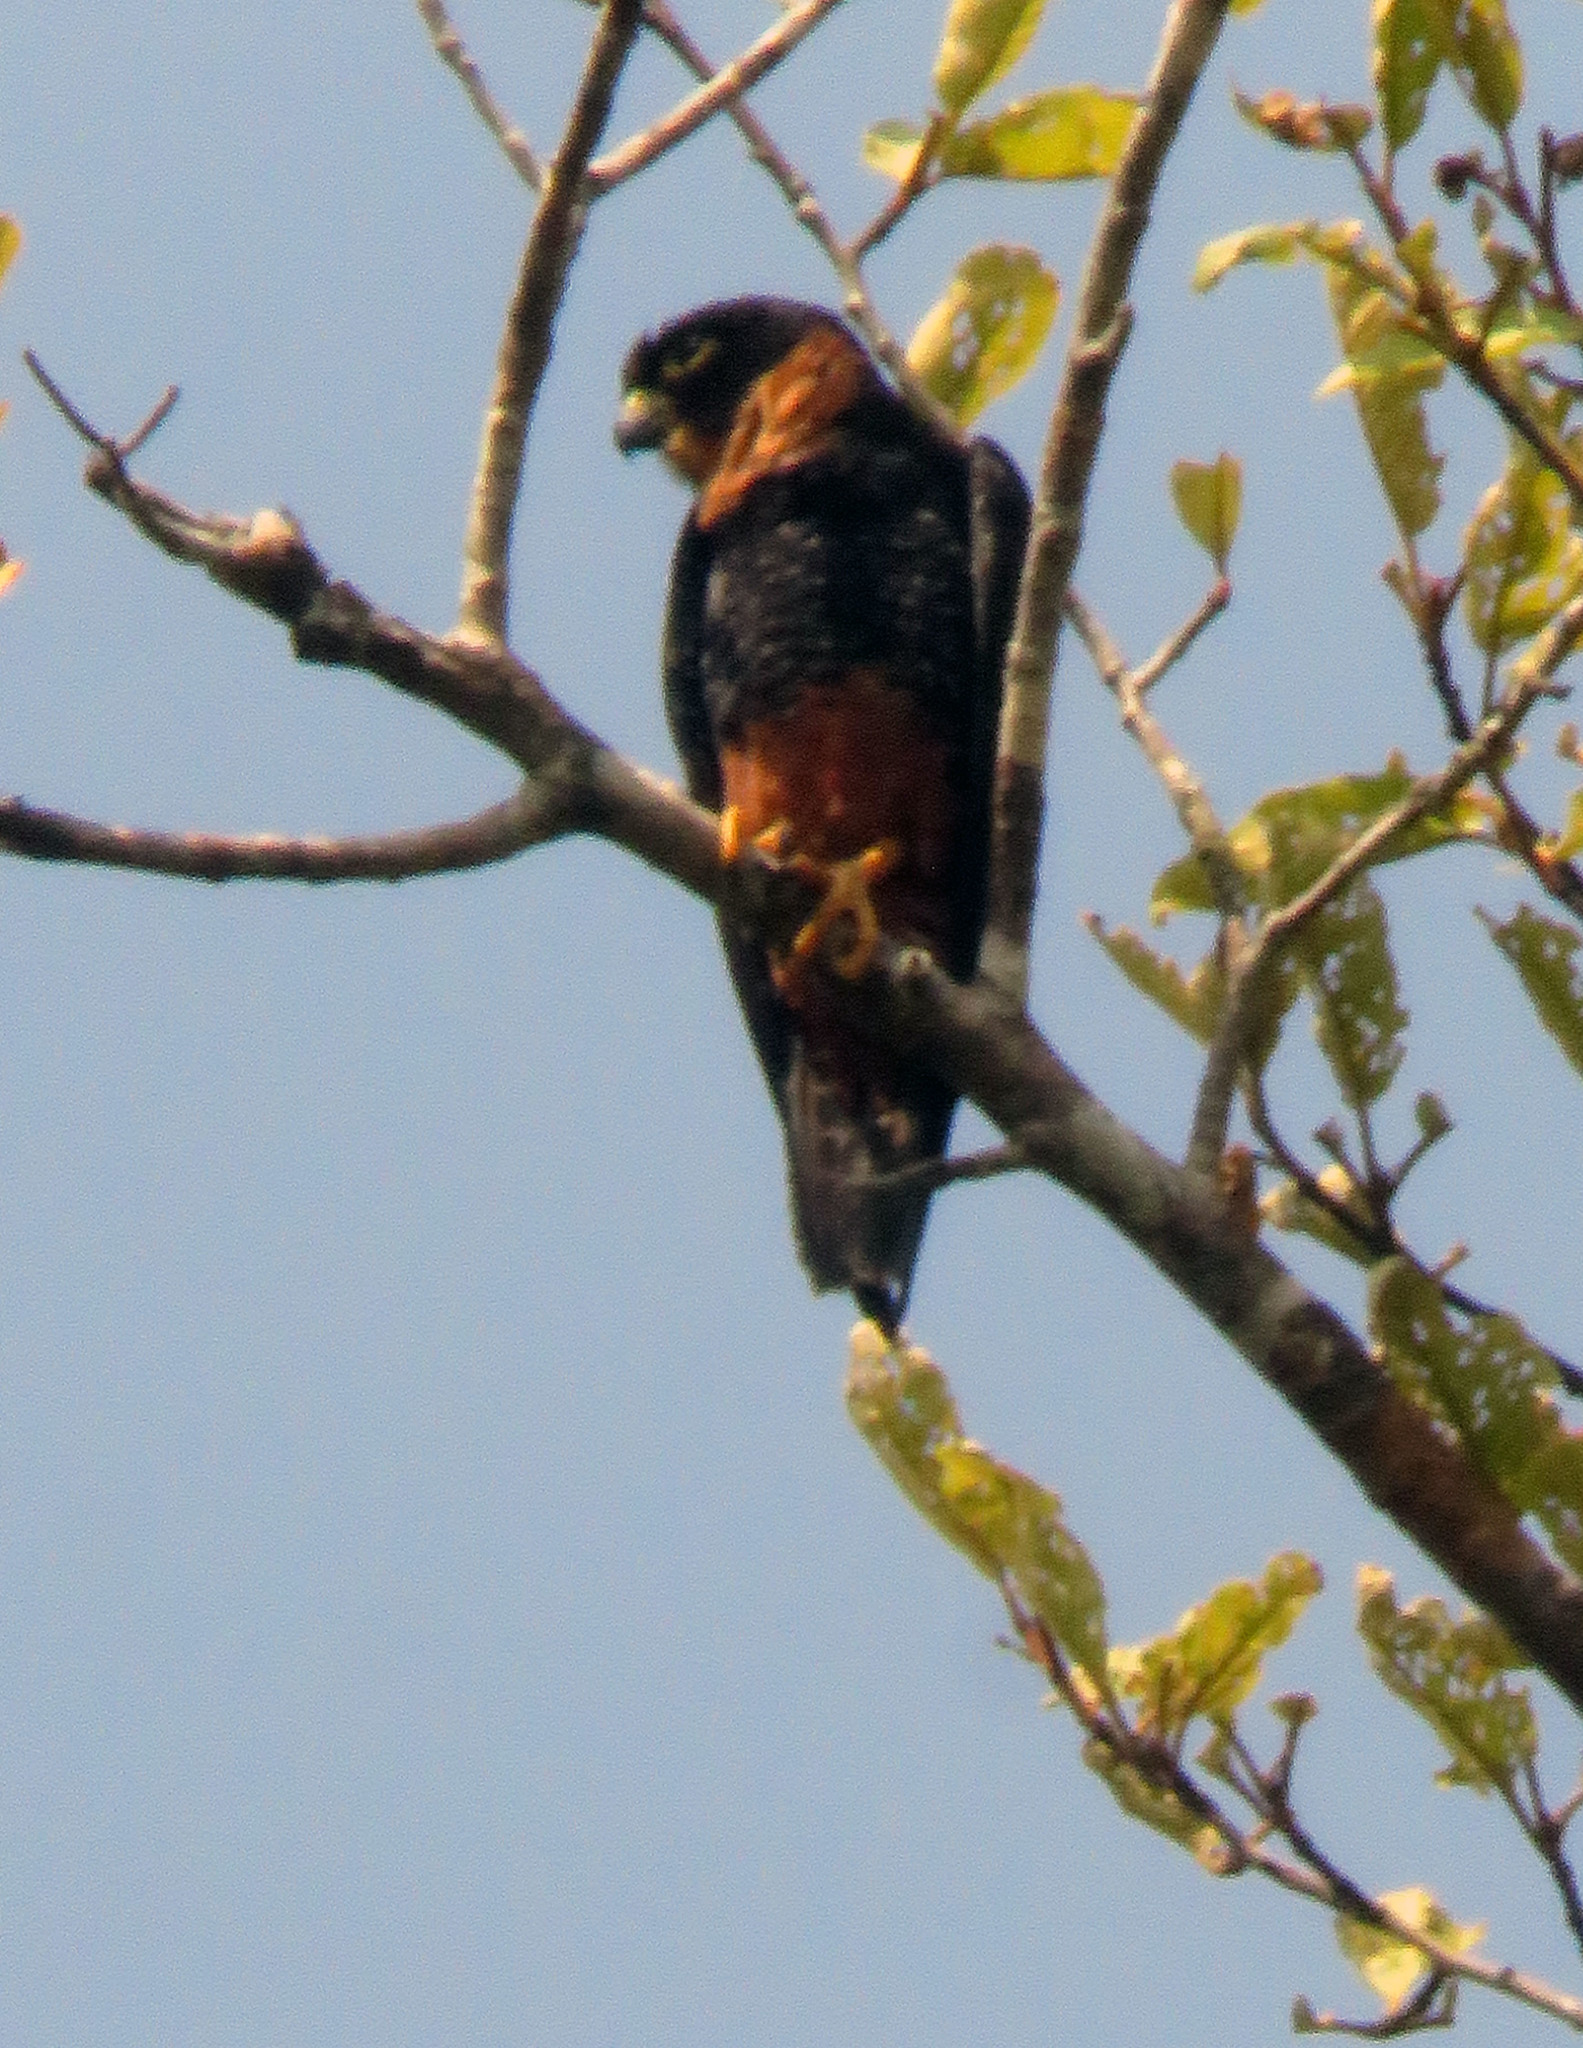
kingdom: Animalia
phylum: Chordata
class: Aves
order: Falconiformes
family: Falconidae
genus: Falco
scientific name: Falco deiroleucus
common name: Orange-breasted falcon
